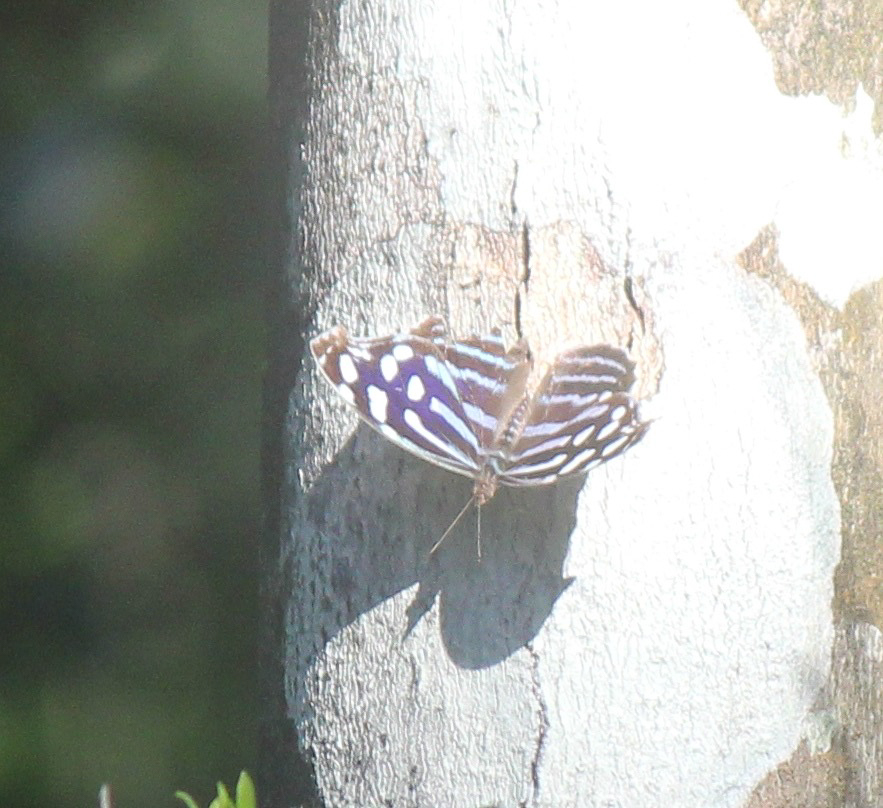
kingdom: Animalia
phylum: Arthropoda
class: Insecta
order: Lepidoptera
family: Nymphalidae
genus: Myscelia
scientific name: Myscelia cyaniris
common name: Whitened bluewing
